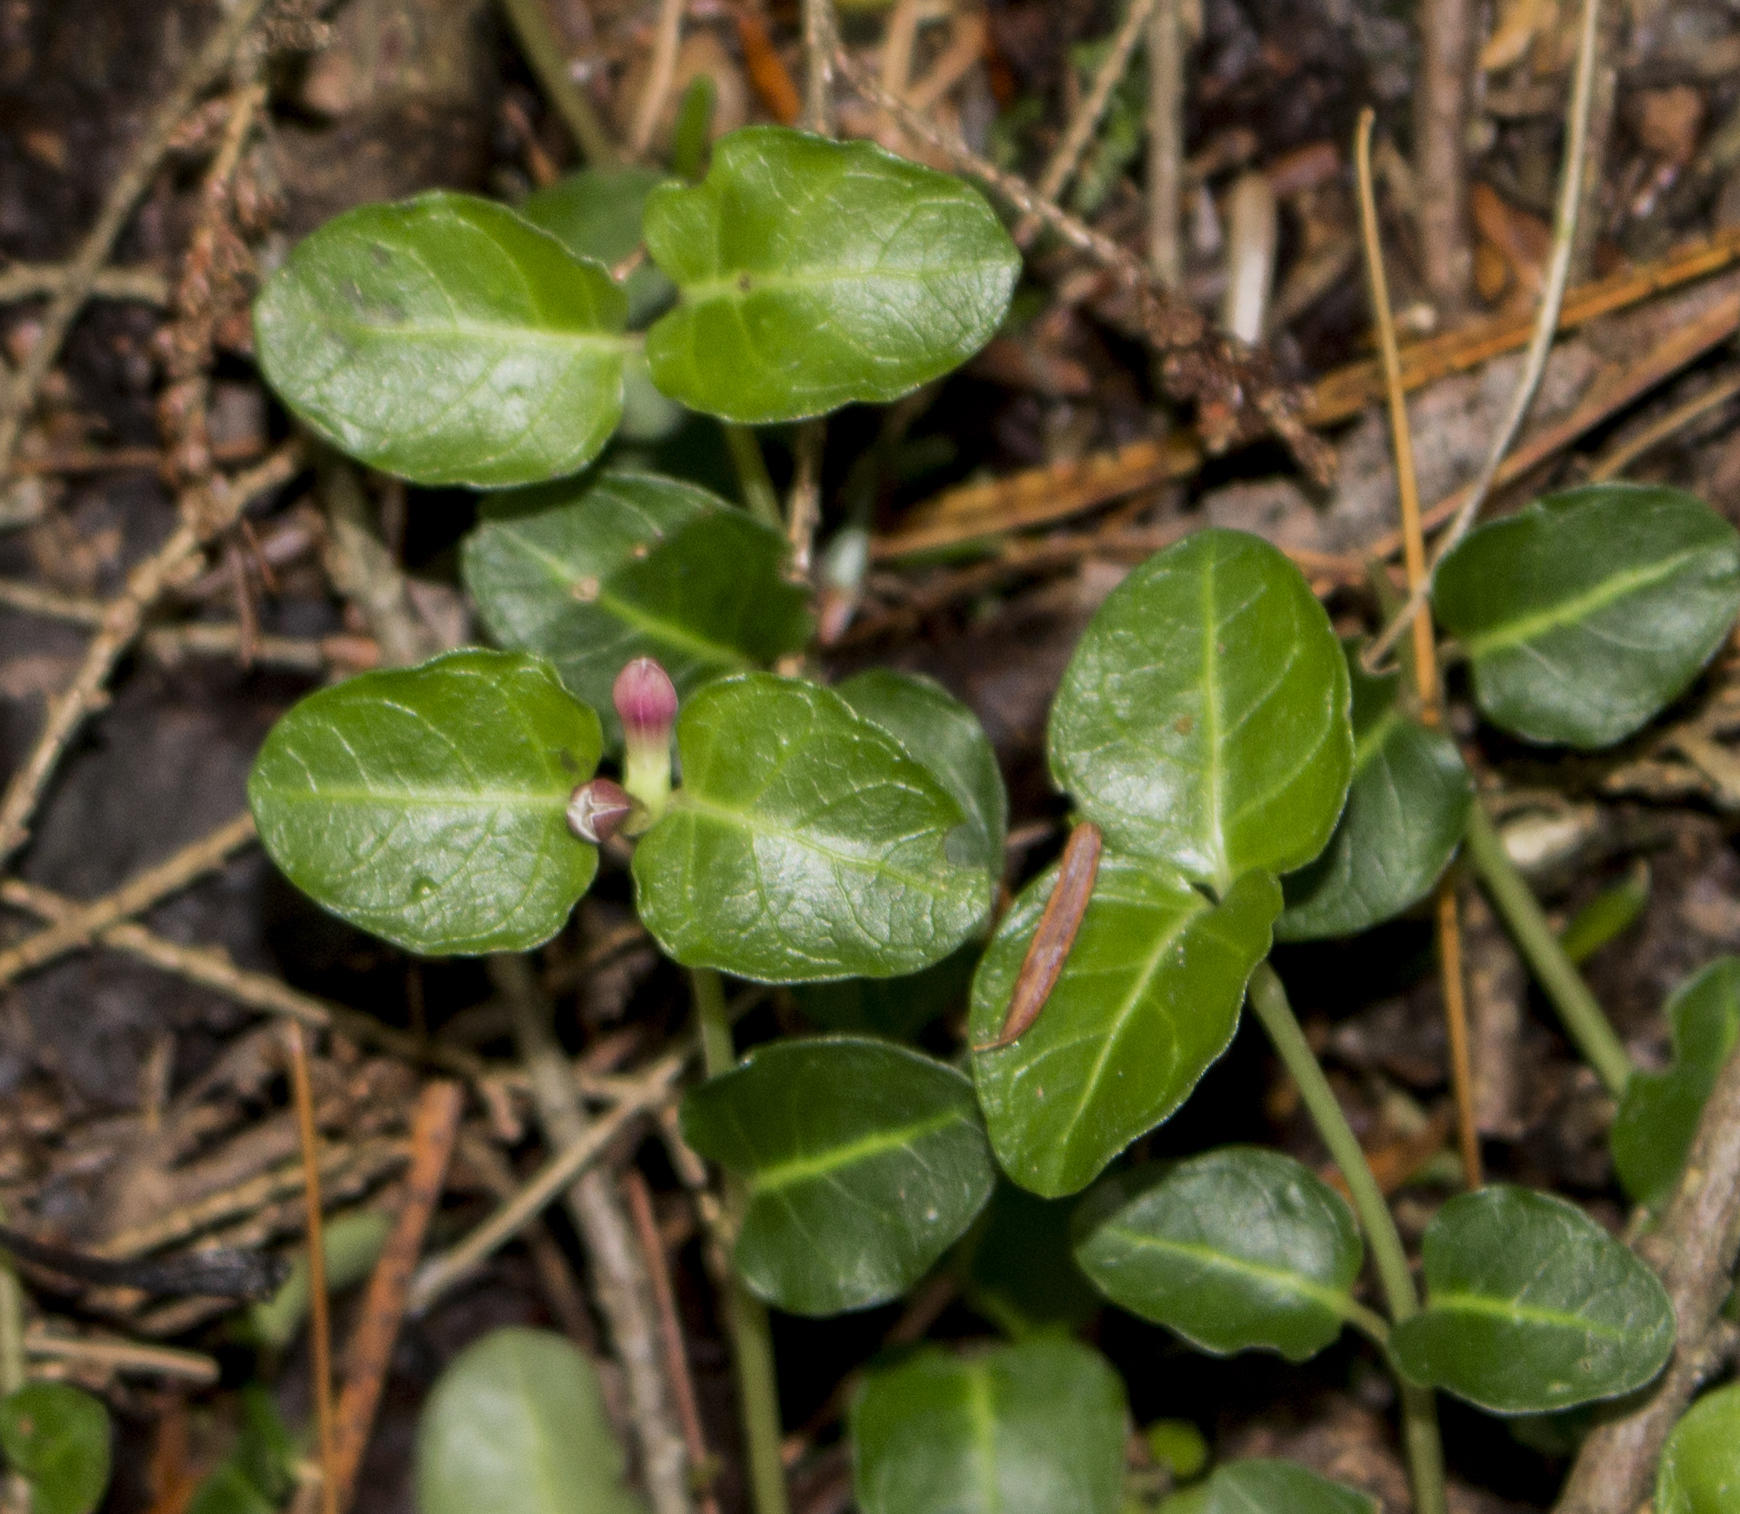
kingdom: Plantae
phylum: Tracheophyta
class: Magnoliopsida
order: Gentianales
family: Rubiaceae
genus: Mitchella
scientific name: Mitchella repens
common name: Partridge-berry
